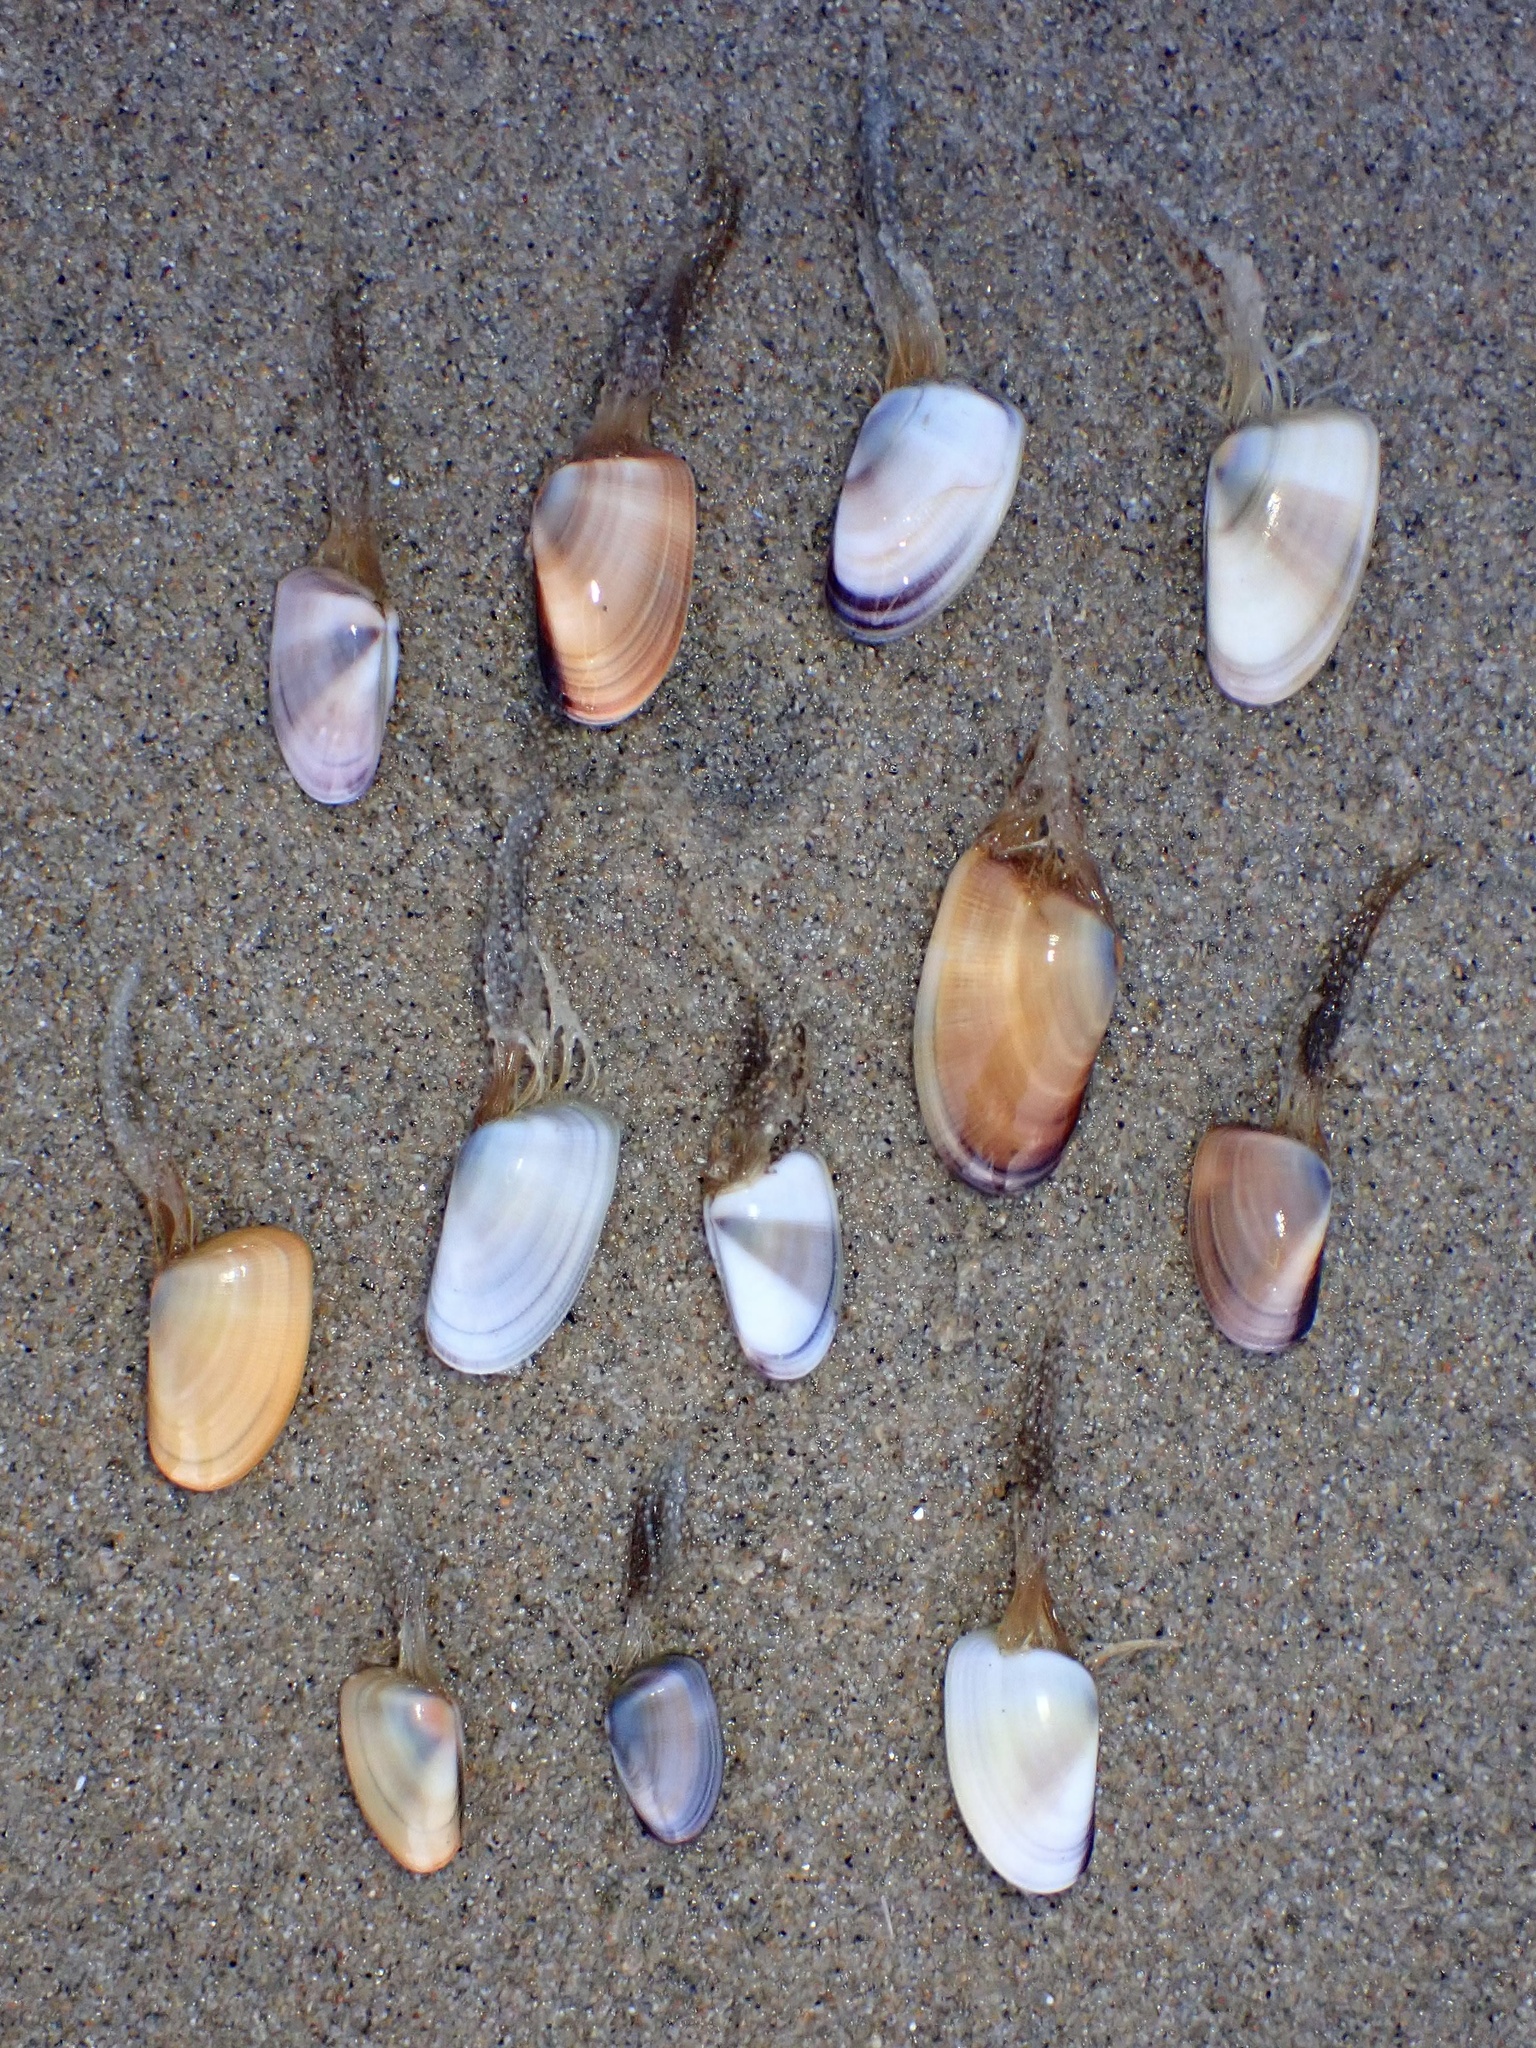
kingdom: Animalia
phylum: Cnidaria
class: Hydrozoa
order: Leptothecata
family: Lovenellidae
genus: Eucheilota
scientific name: Eucheilota bakeri
